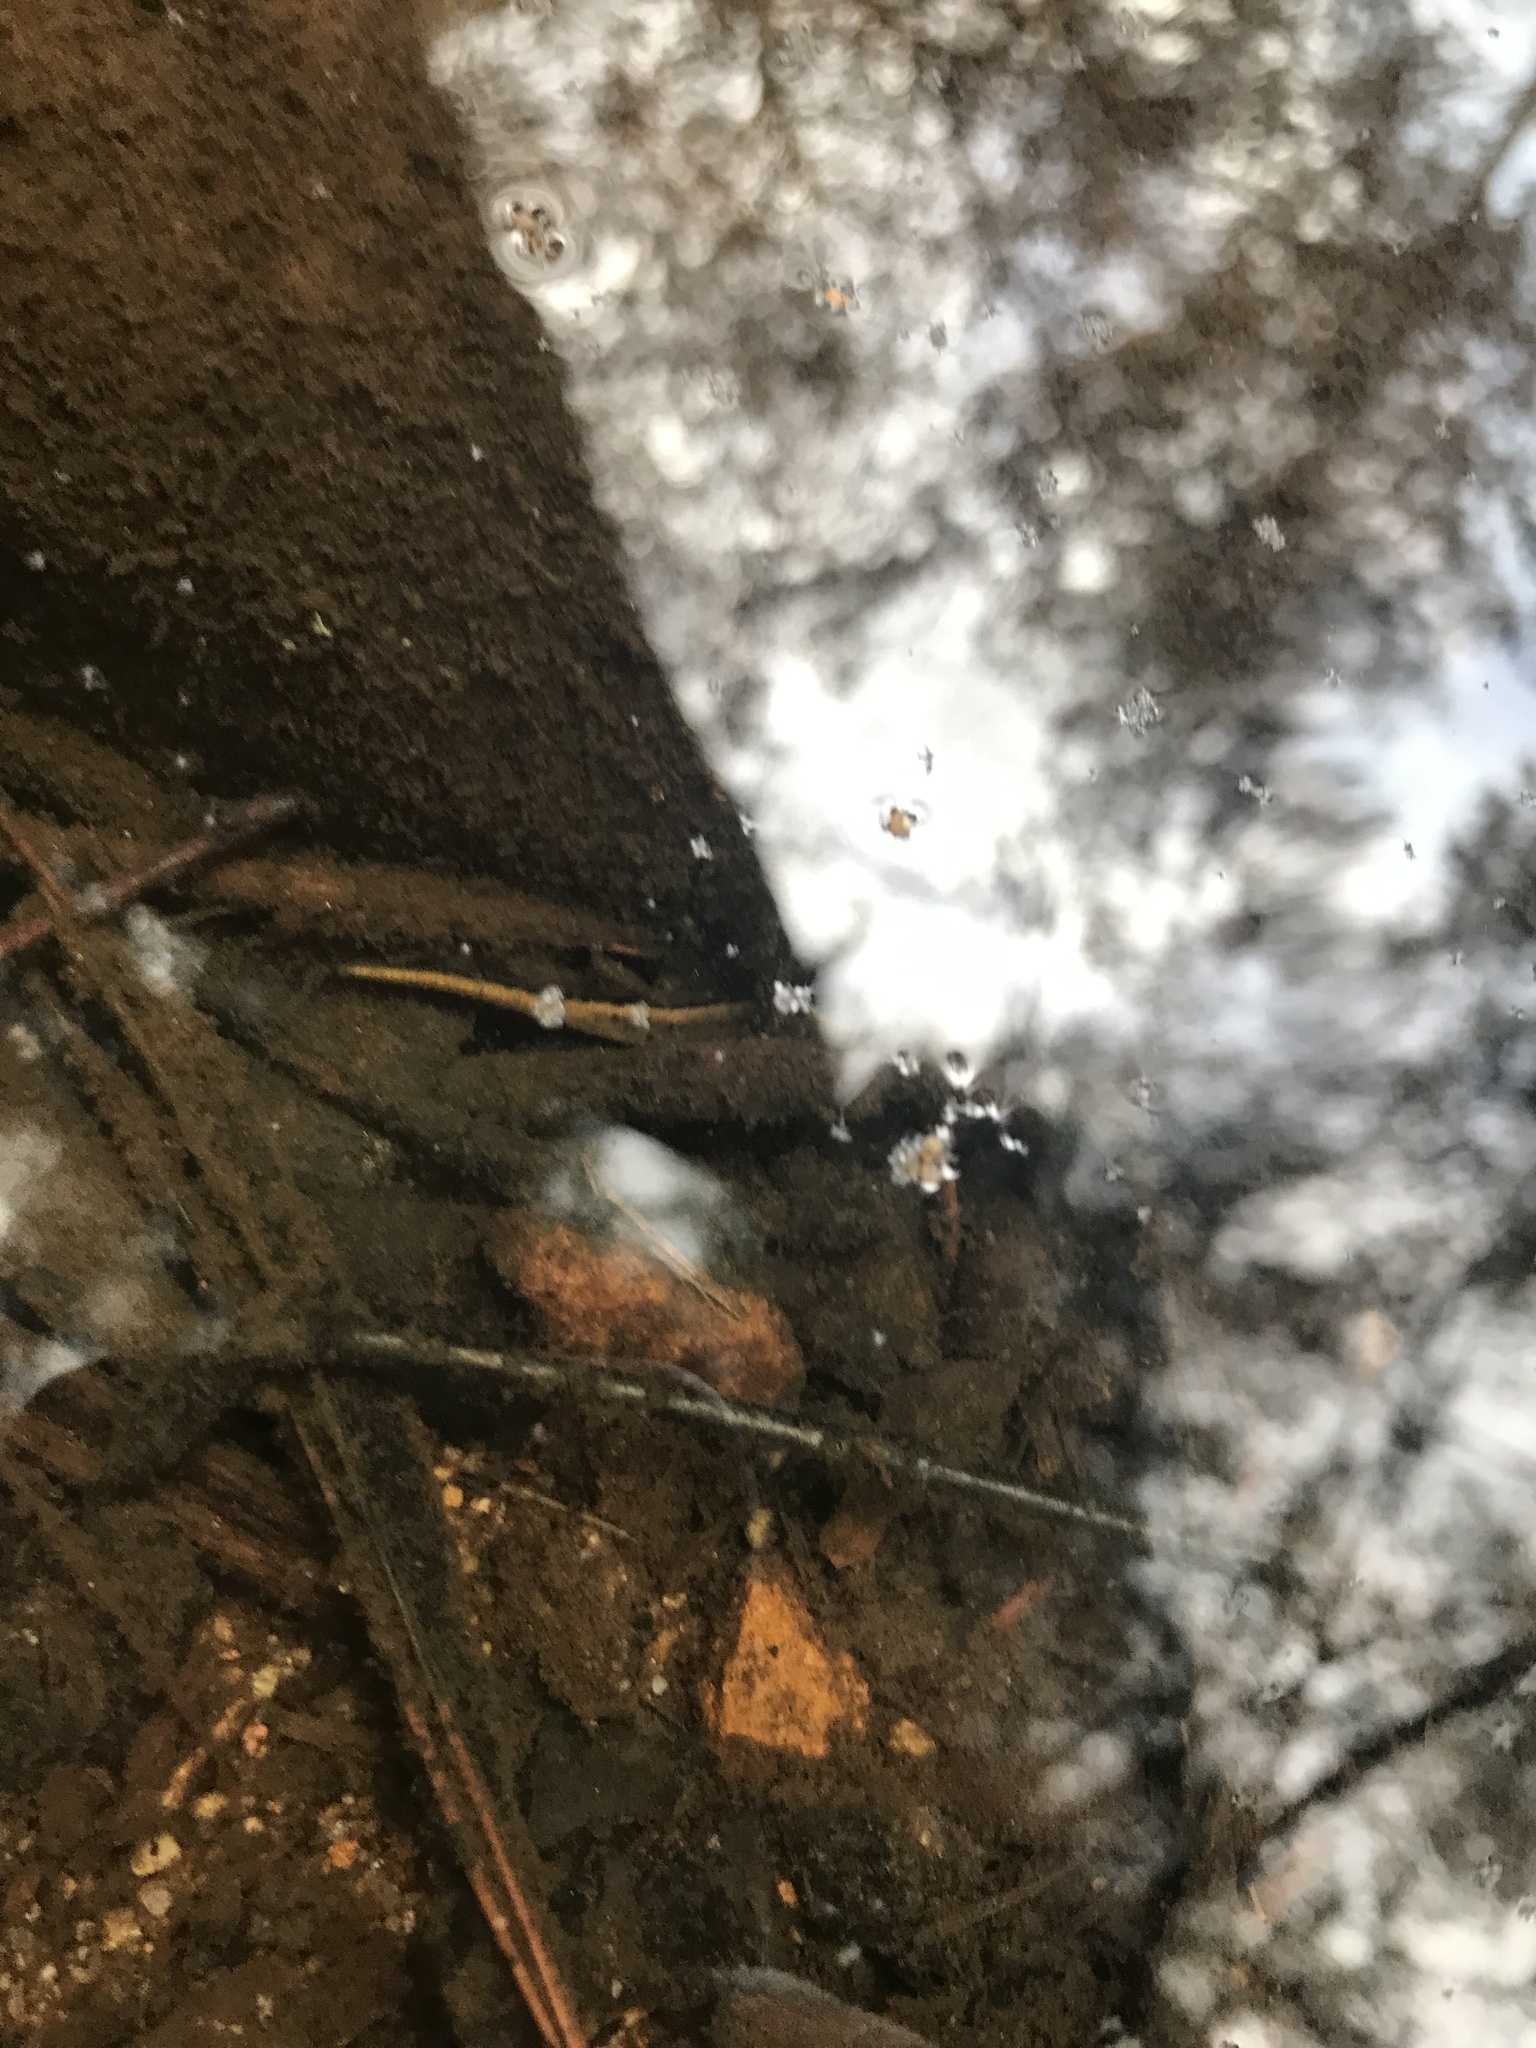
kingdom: Animalia
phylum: Chordata
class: Amphibia
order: Caudata
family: Plethodontidae
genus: Eurycea
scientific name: Eurycea bislineata
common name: Northern two-lined salamander
